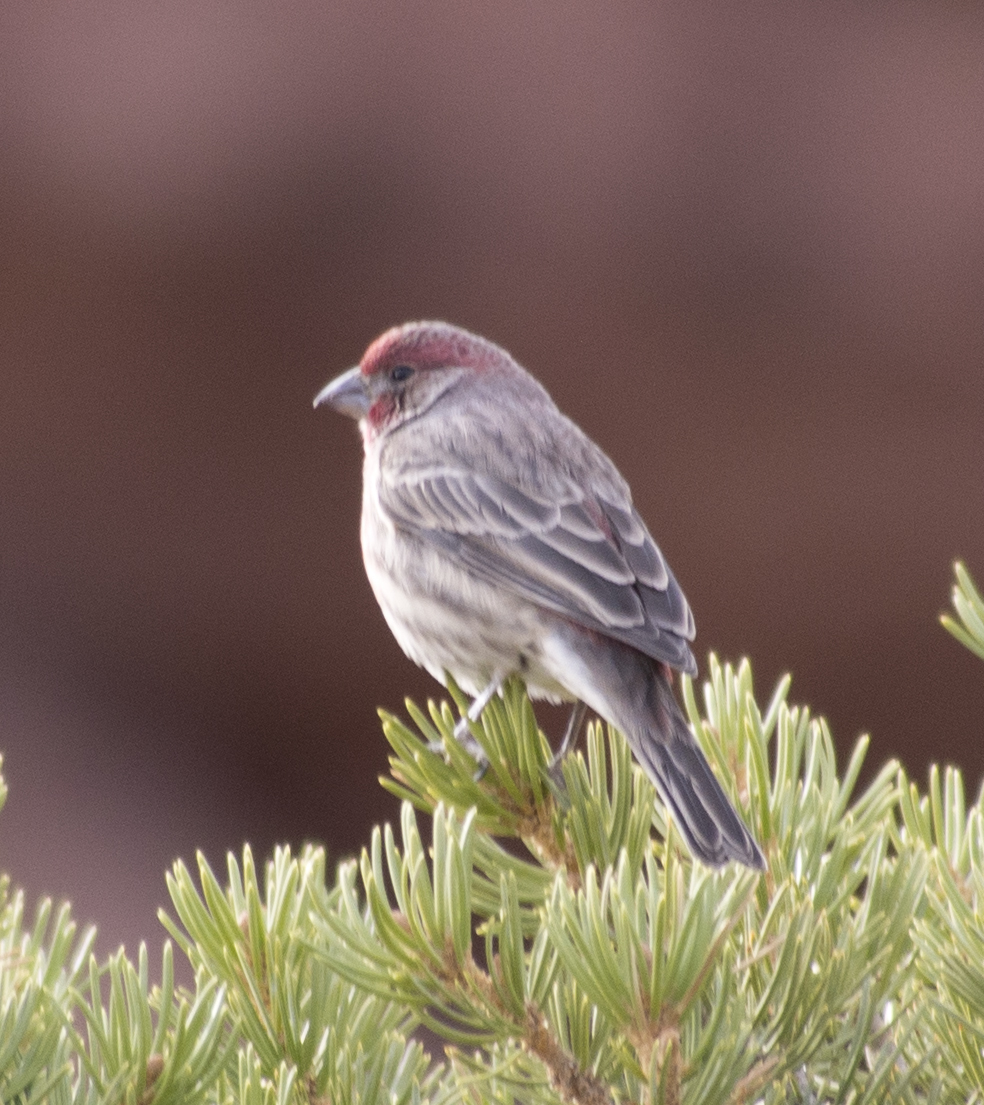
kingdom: Animalia
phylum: Chordata
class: Aves
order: Passeriformes
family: Fringillidae
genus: Haemorhous
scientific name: Haemorhous mexicanus
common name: House finch
